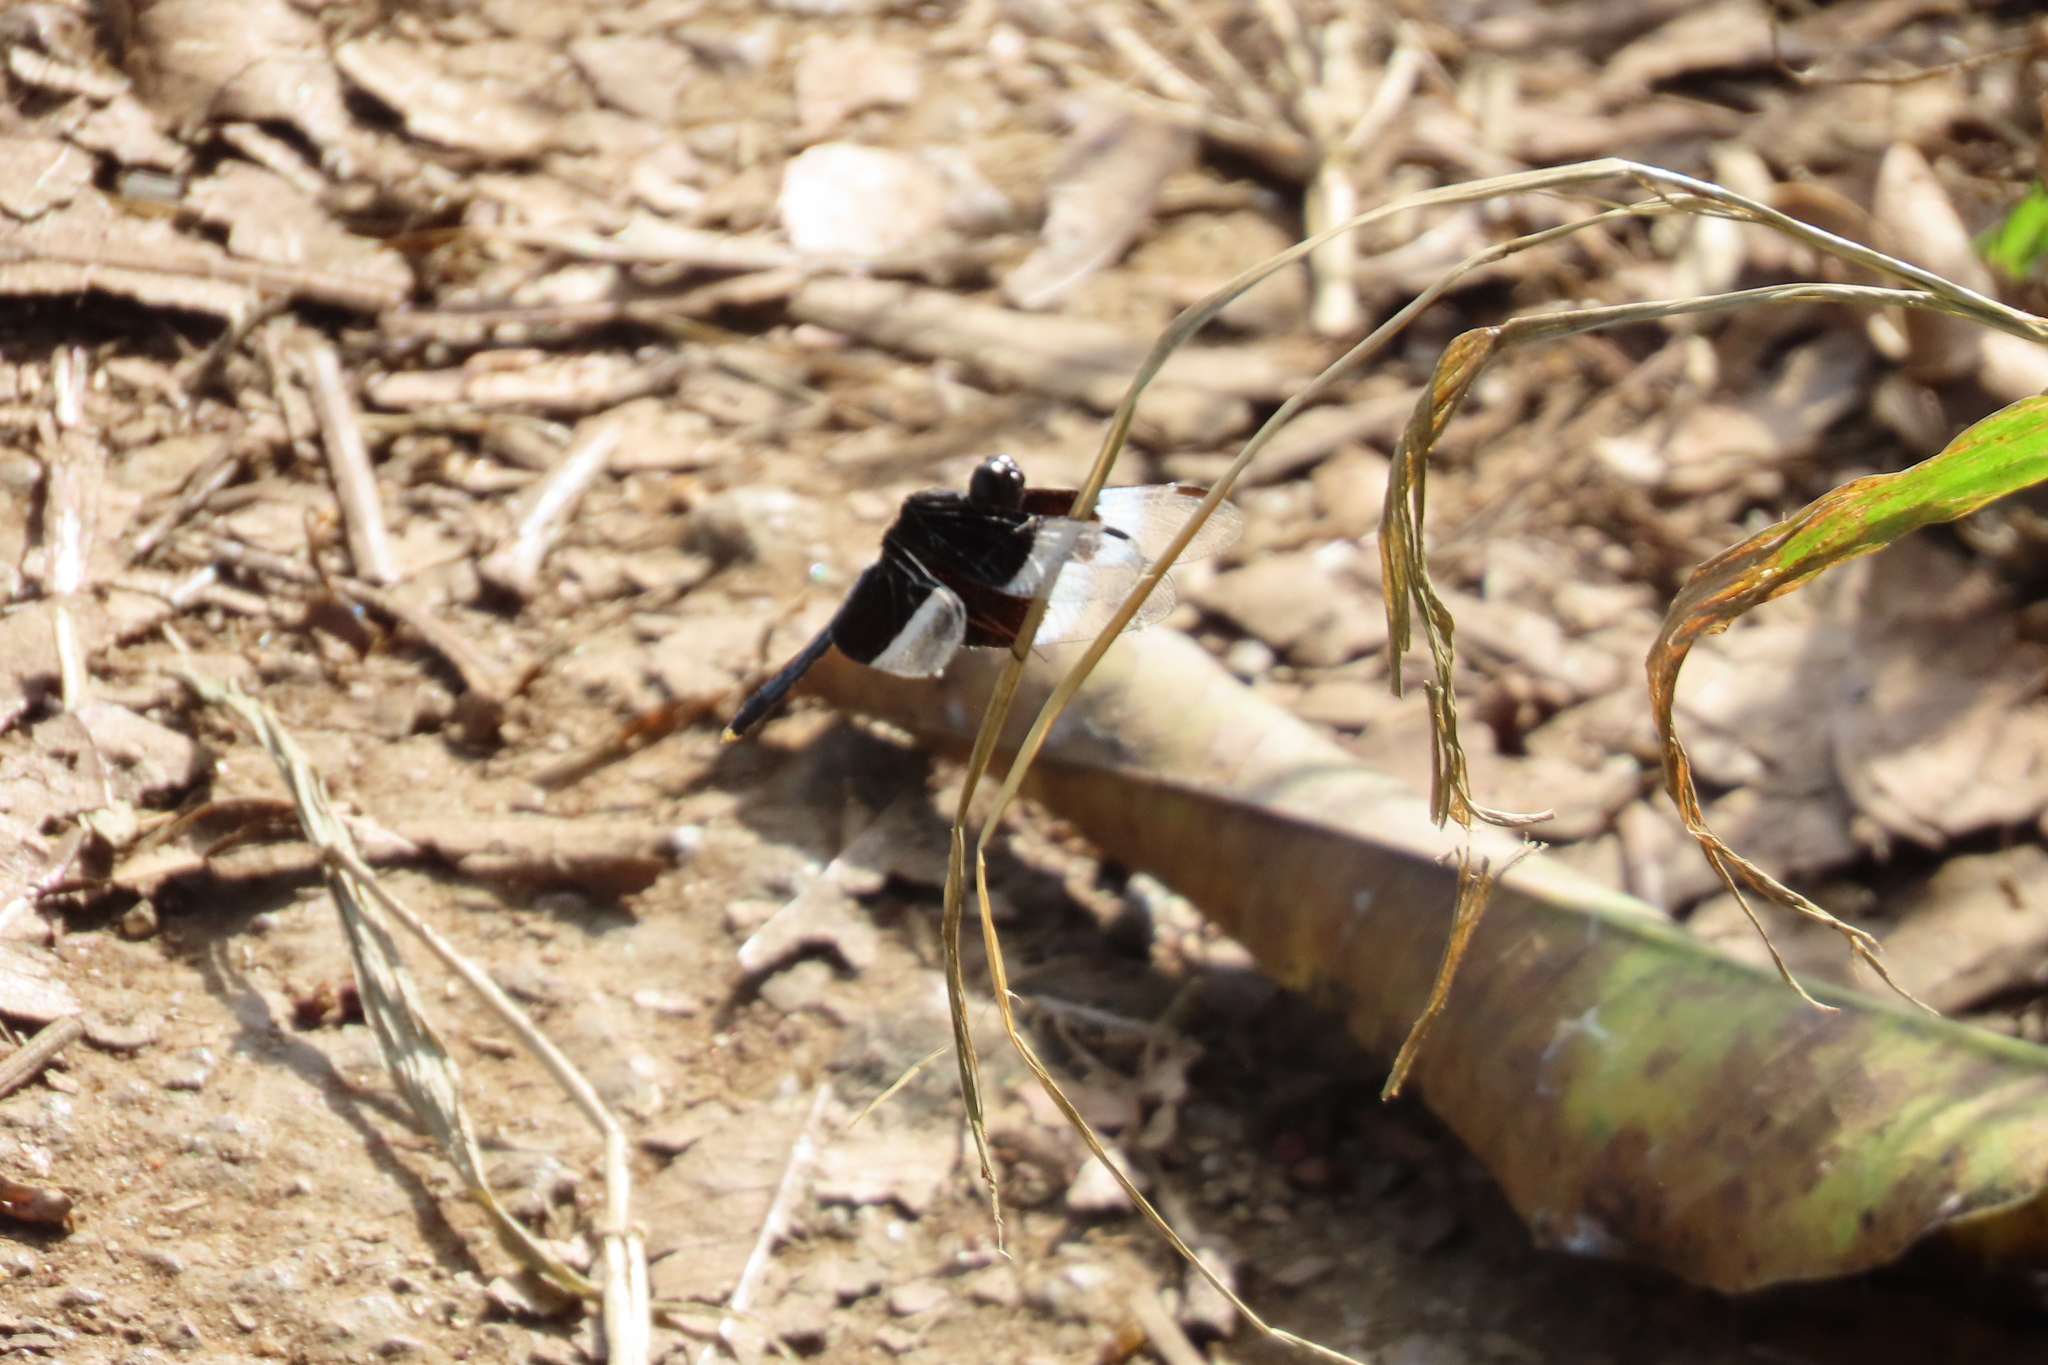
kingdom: Animalia
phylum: Arthropoda
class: Insecta
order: Odonata
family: Libellulidae
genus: Neurothemis
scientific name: Neurothemis tullia
